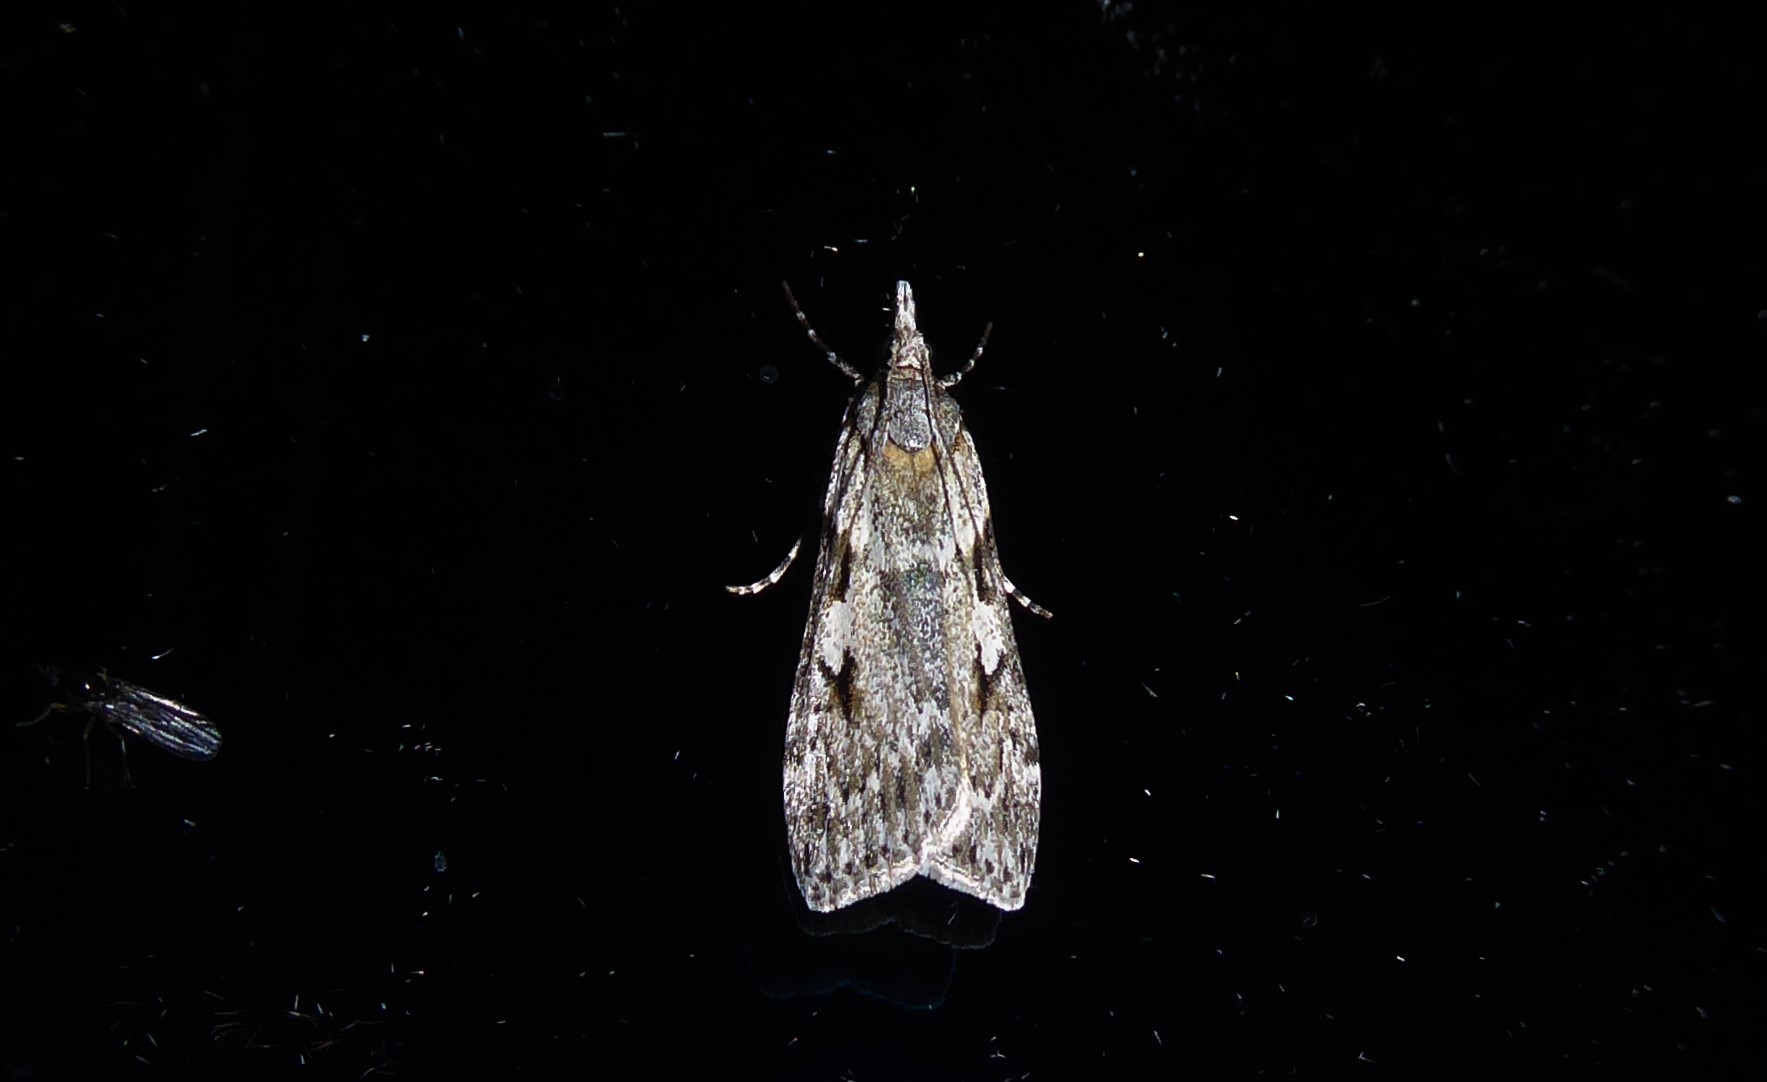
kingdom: Animalia
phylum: Arthropoda
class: Insecta
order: Lepidoptera
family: Crambidae
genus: Scoparia
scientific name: Scoparia halopis
